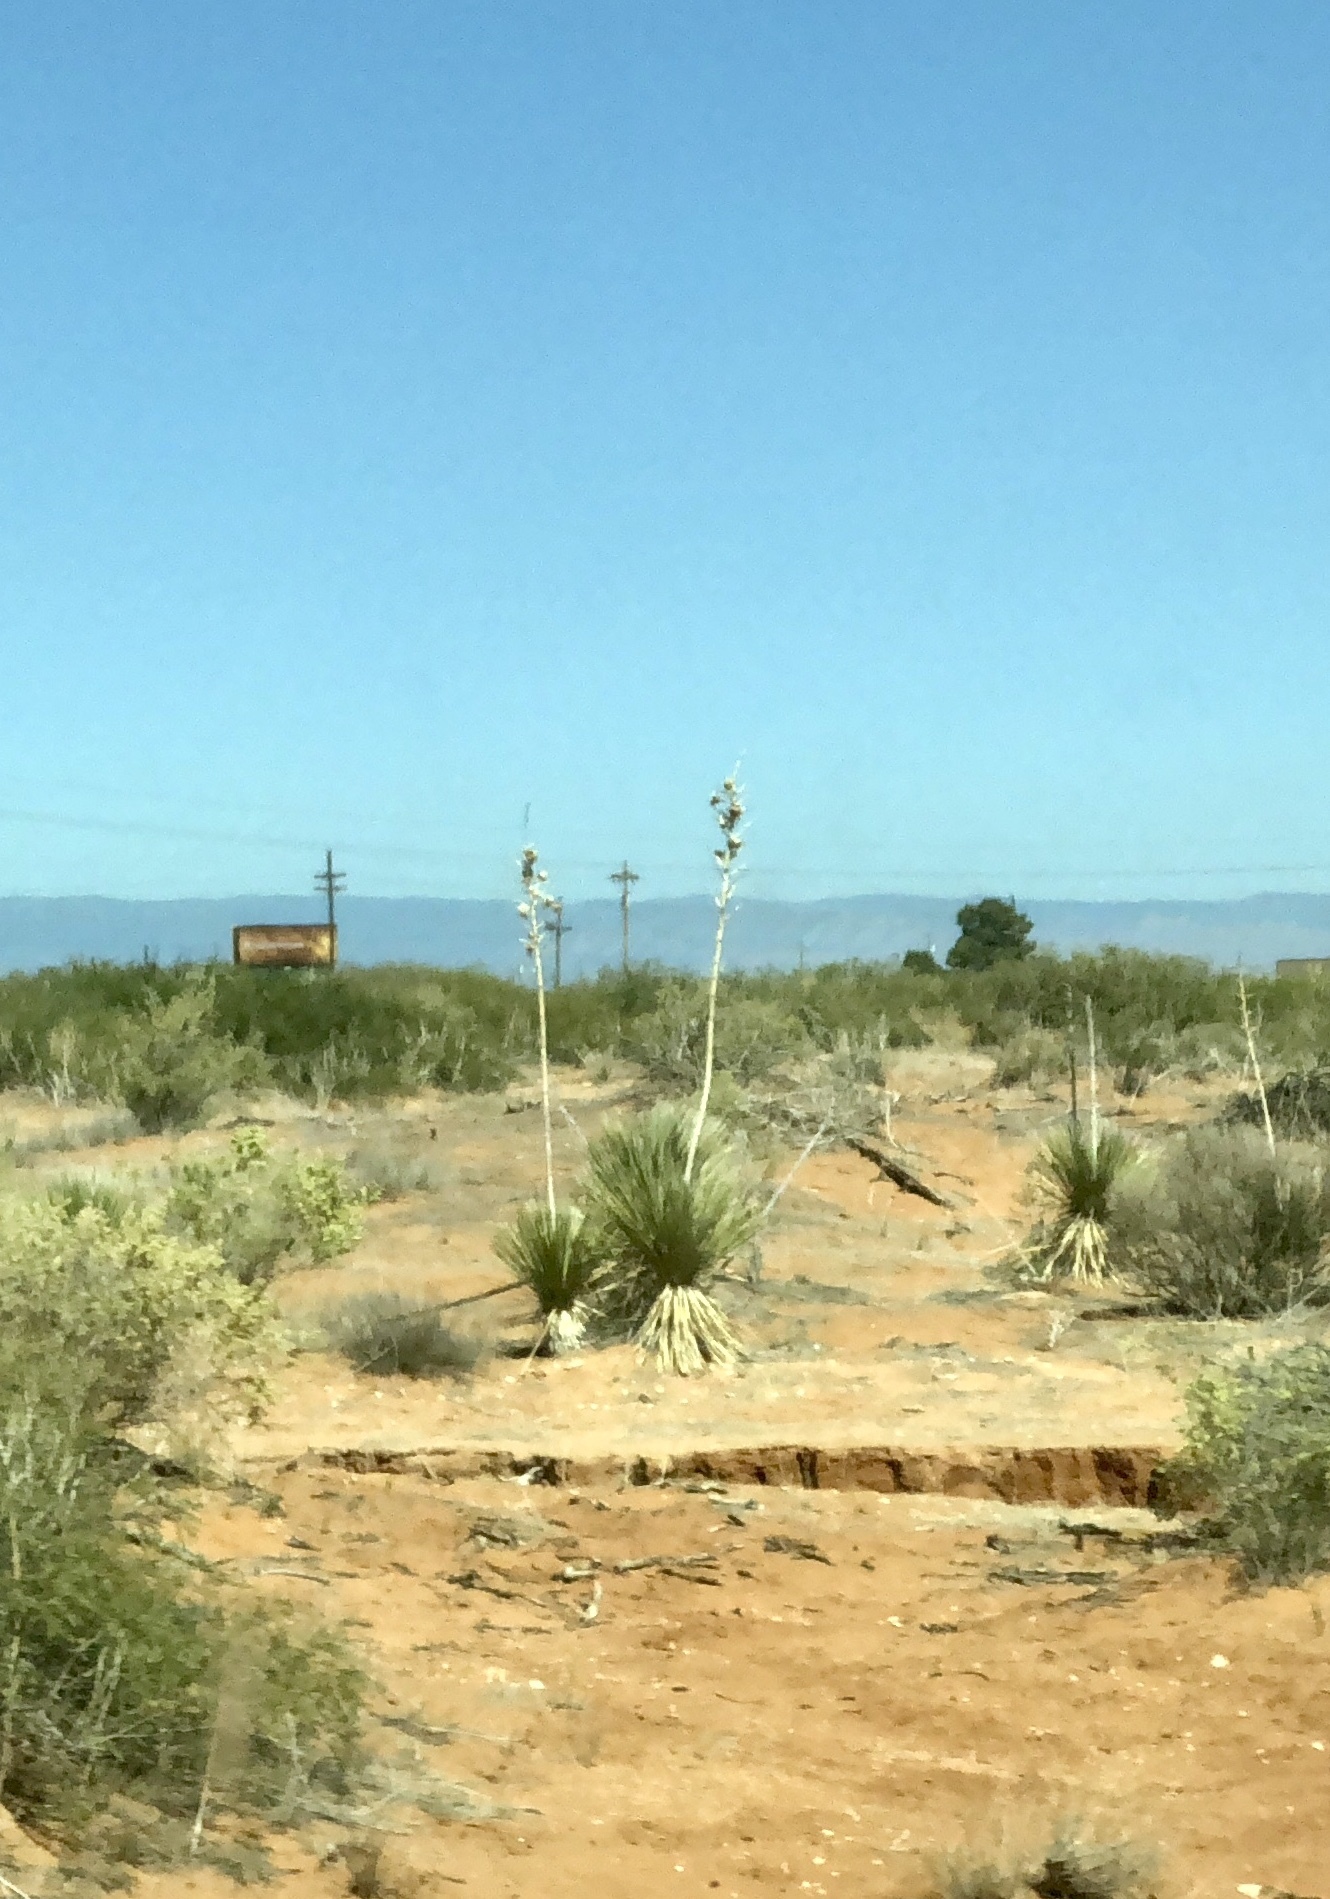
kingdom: Plantae
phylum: Tracheophyta
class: Liliopsida
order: Asparagales
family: Asparagaceae
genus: Yucca
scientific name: Yucca elata
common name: Palmella
